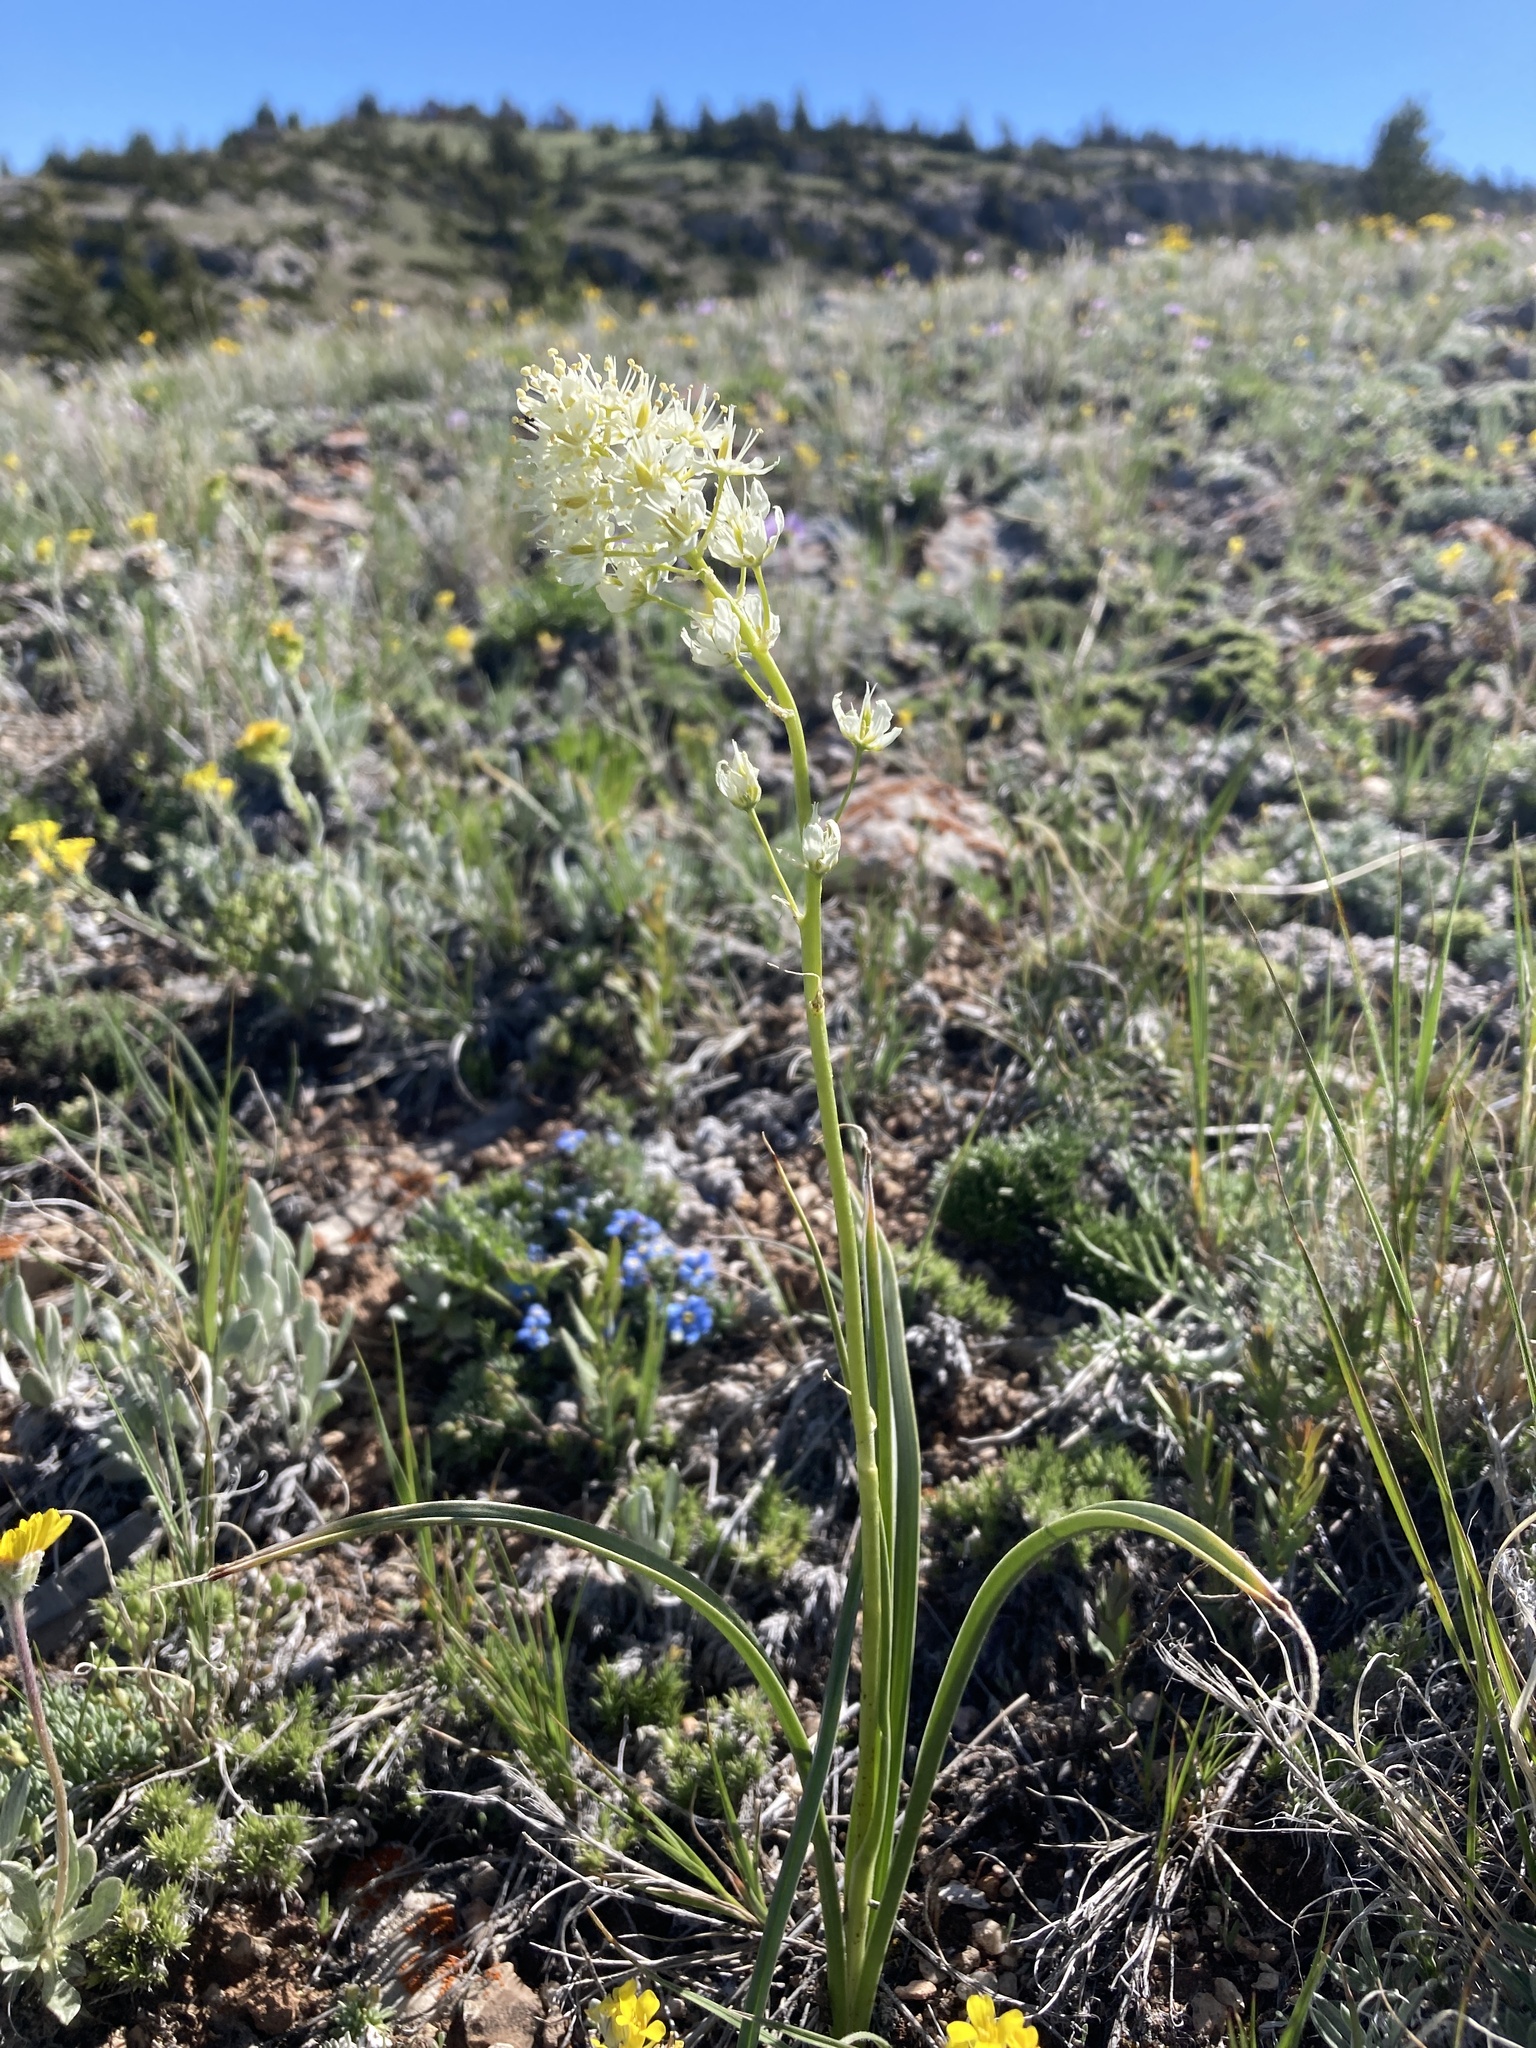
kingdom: Plantae
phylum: Tracheophyta
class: Liliopsida
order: Liliales
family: Melanthiaceae
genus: Toxicoscordion
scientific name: Toxicoscordion venenosum
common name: Meadow death camas
